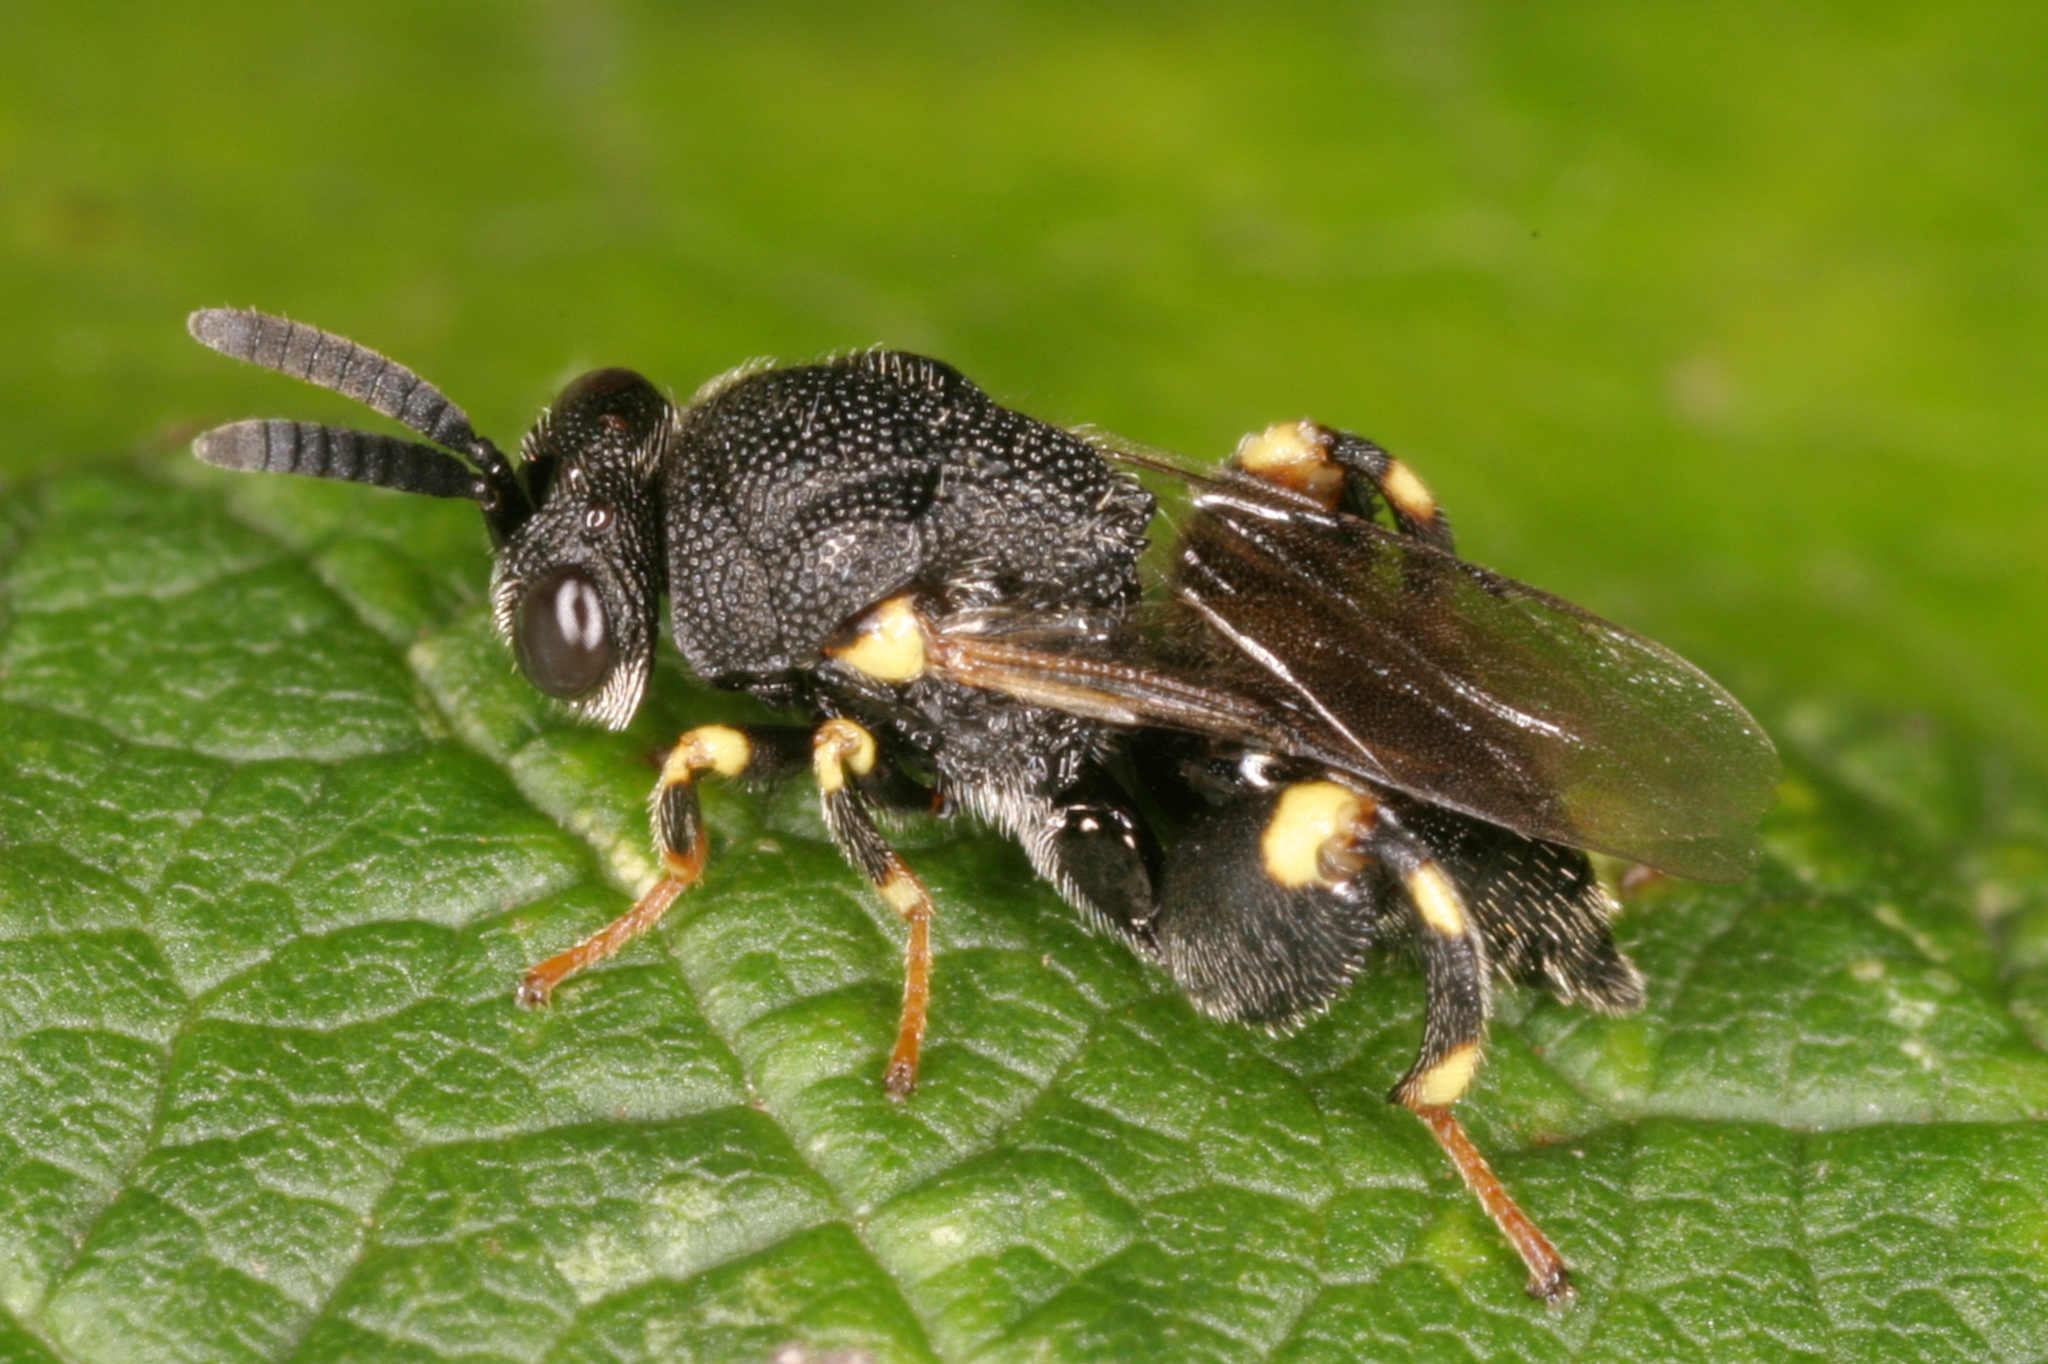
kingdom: Animalia
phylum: Arthropoda
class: Insecta
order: Hymenoptera
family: Chalcididae
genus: Brachymeria
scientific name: Brachymeria minuta
